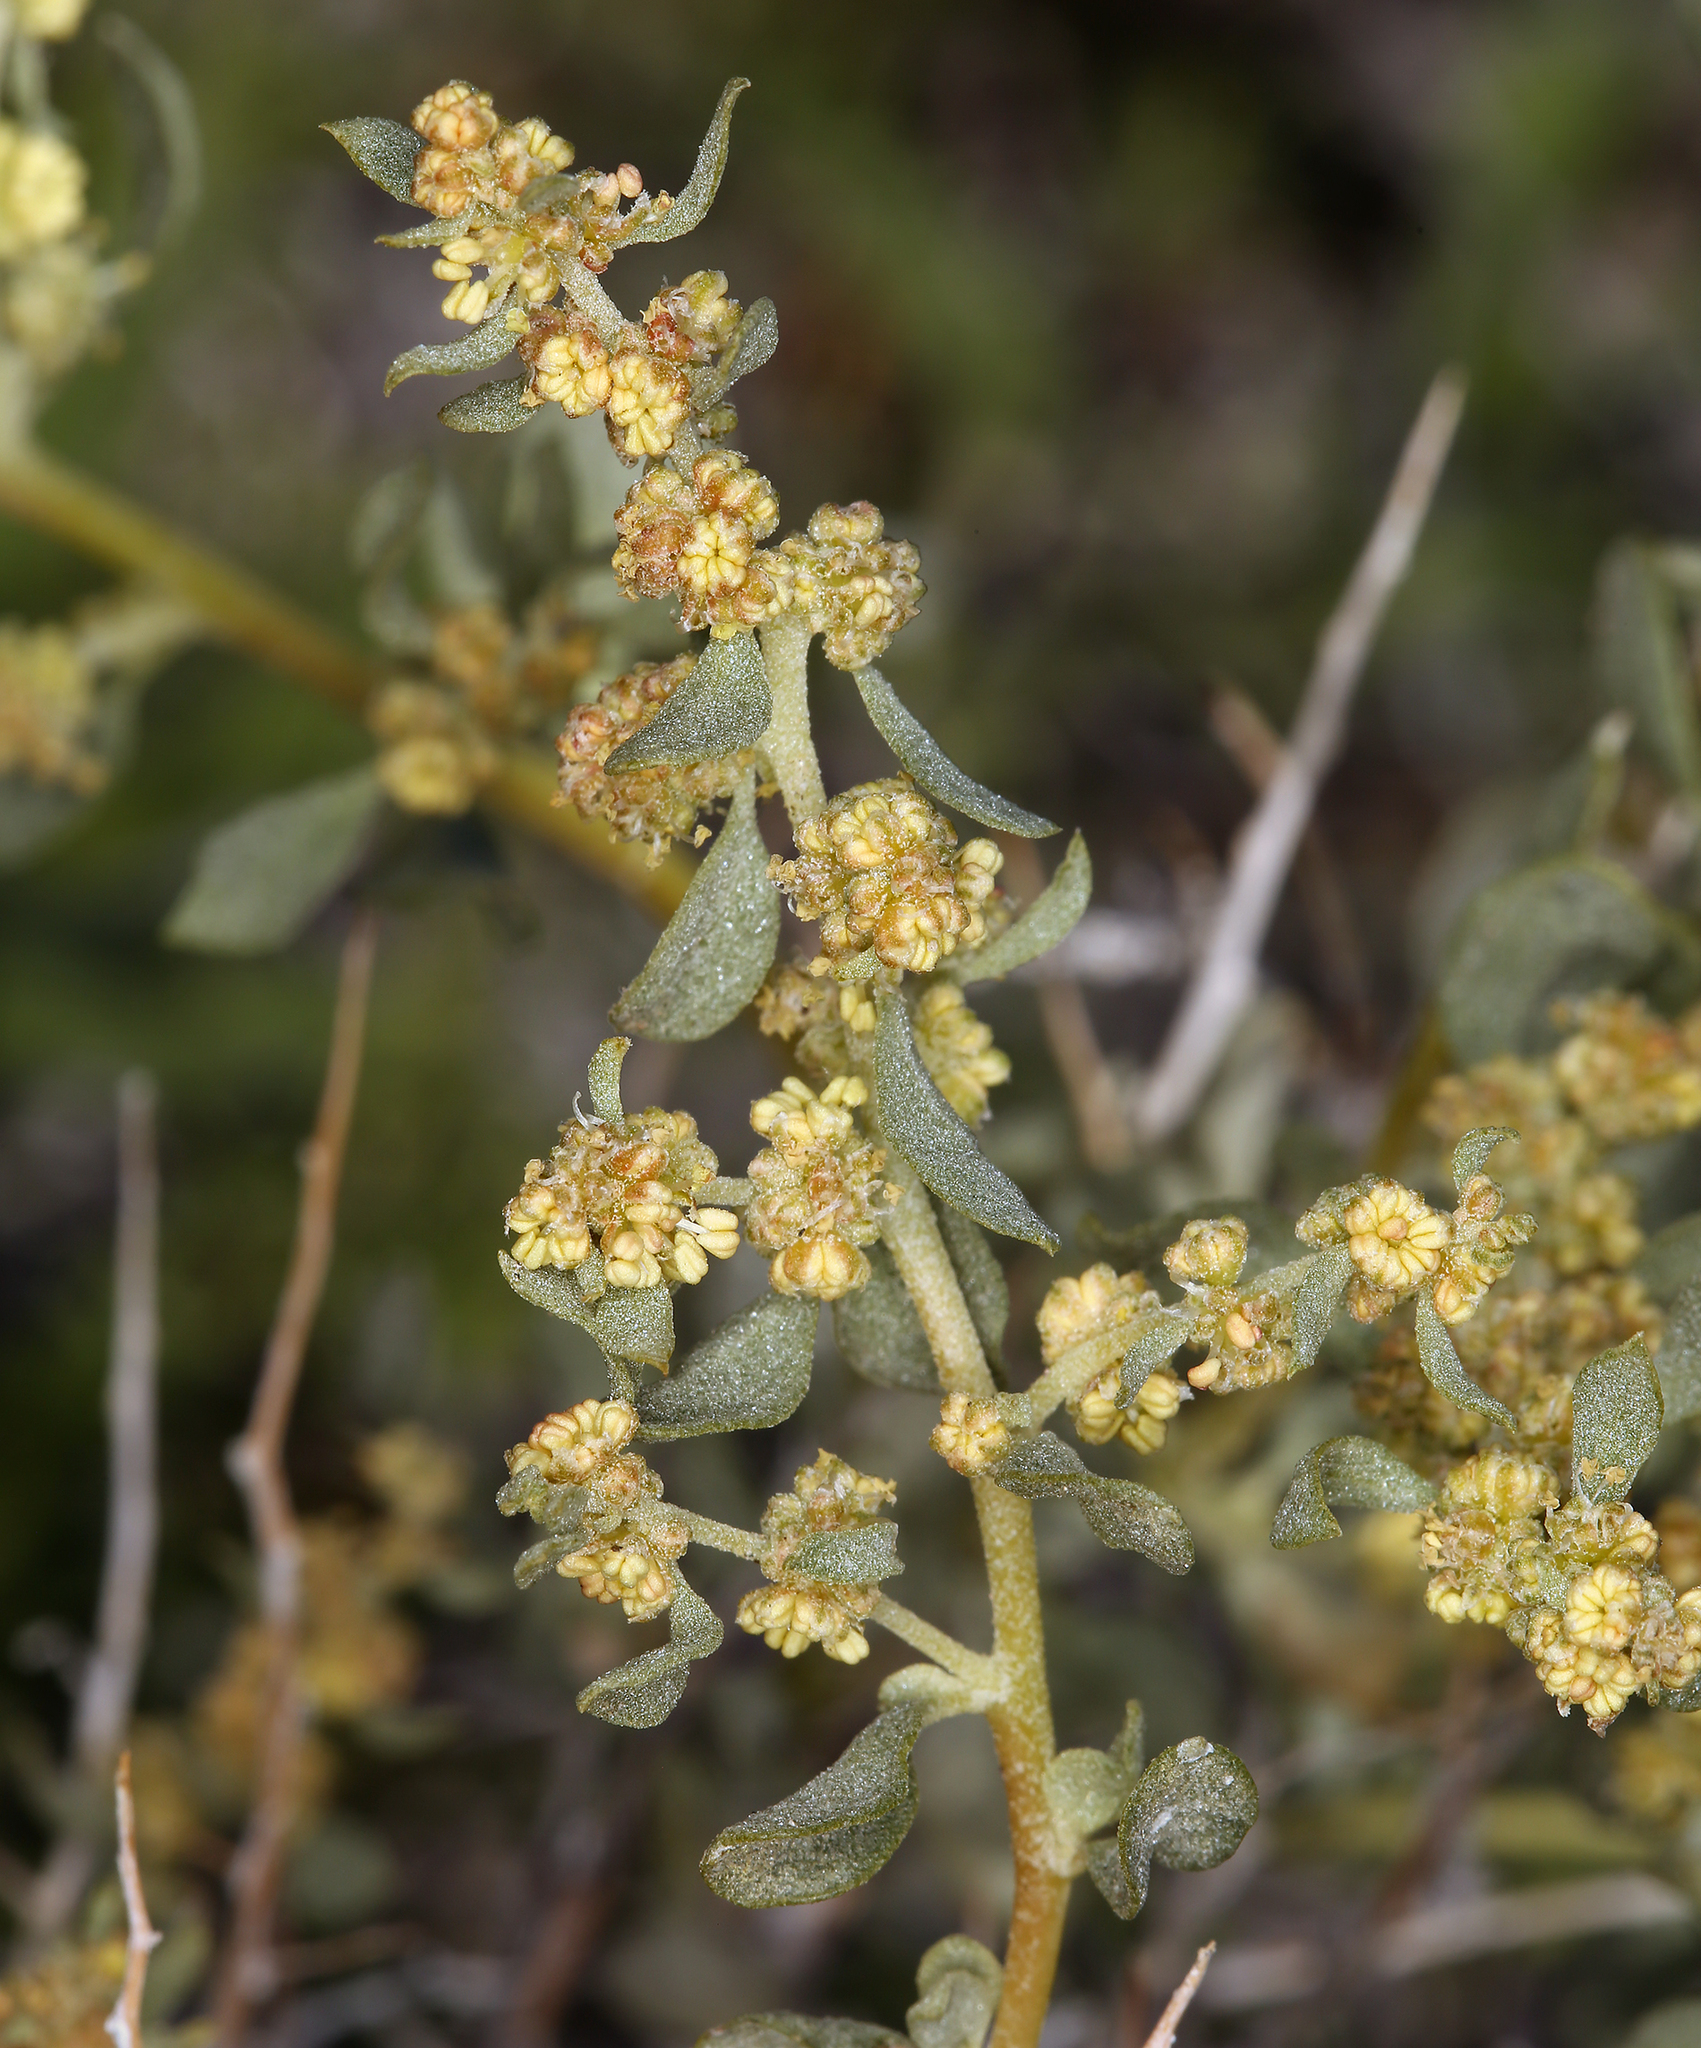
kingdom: Plantae
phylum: Tracheophyta
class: Magnoliopsida
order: Caryophyllales
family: Amaranthaceae
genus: Atriplex
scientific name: Atriplex confertifolia
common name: Shadscale
